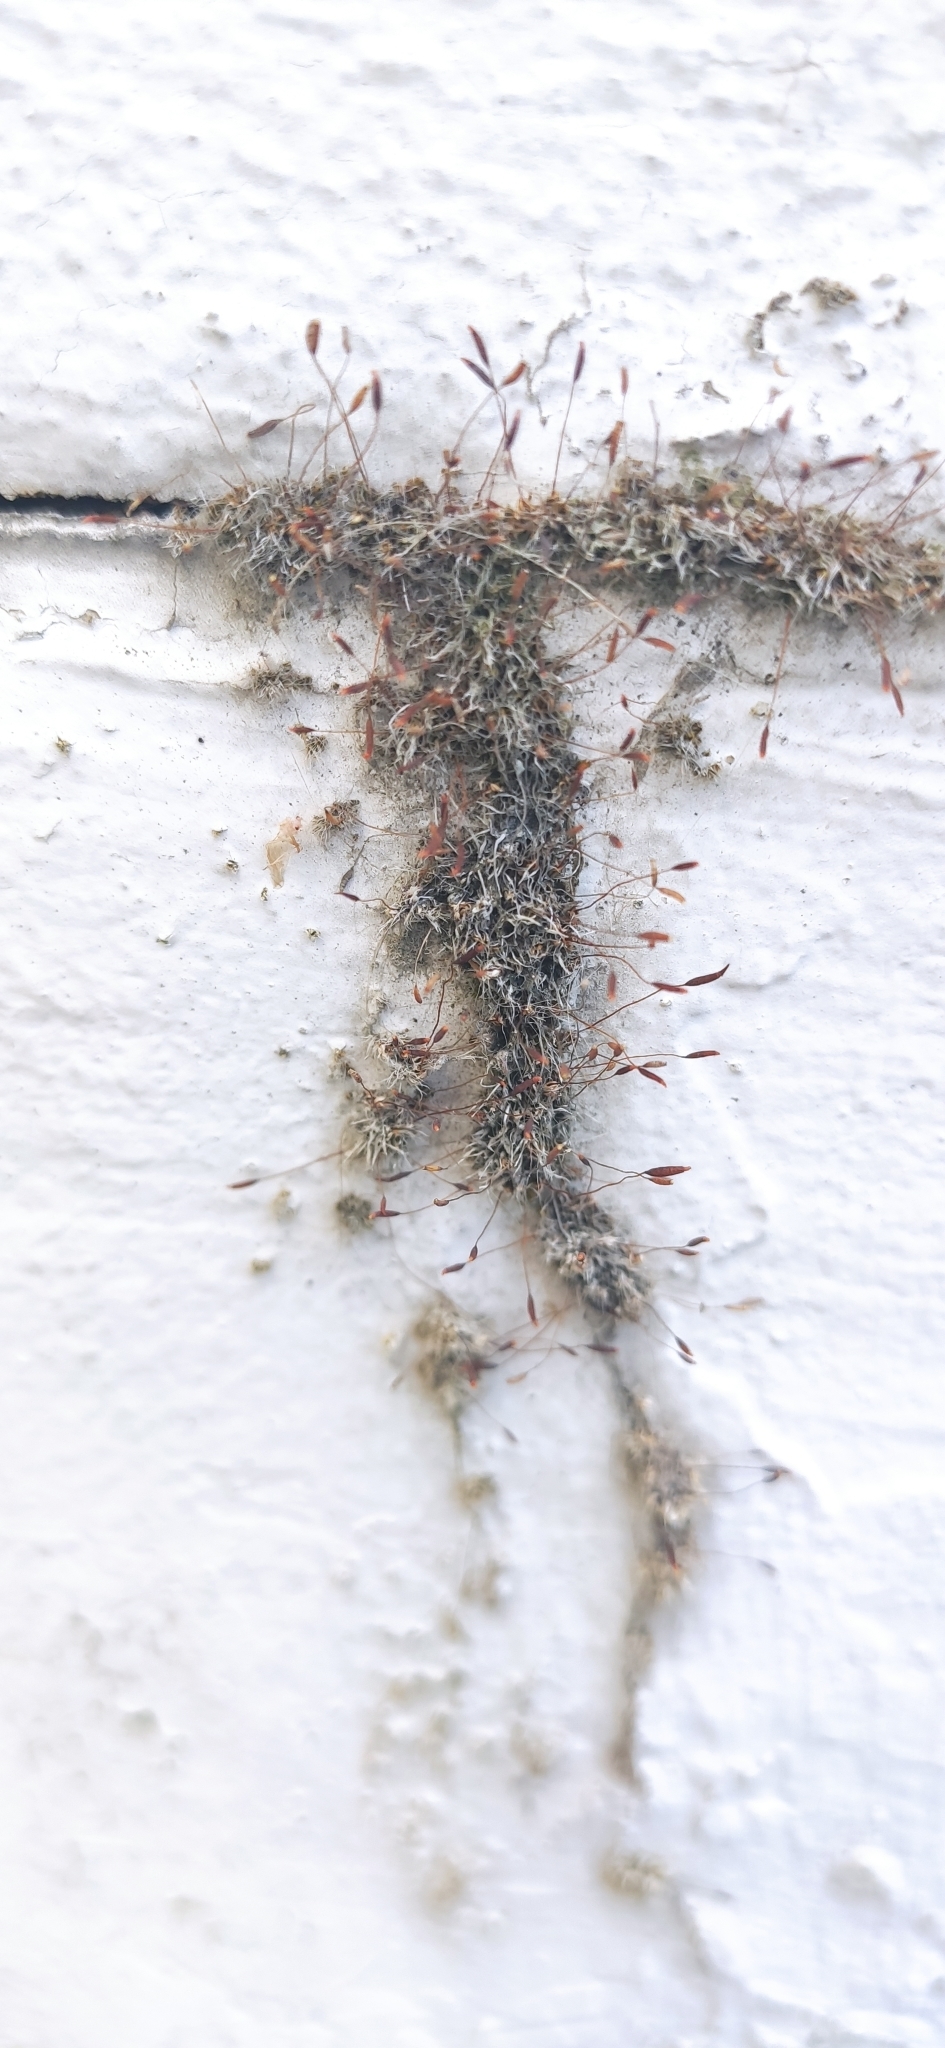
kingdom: Plantae
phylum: Bryophyta
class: Bryopsida
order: Pottiales
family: Pottiaceae
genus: Tortula
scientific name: Tortula muralis
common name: Wall screw-moss
